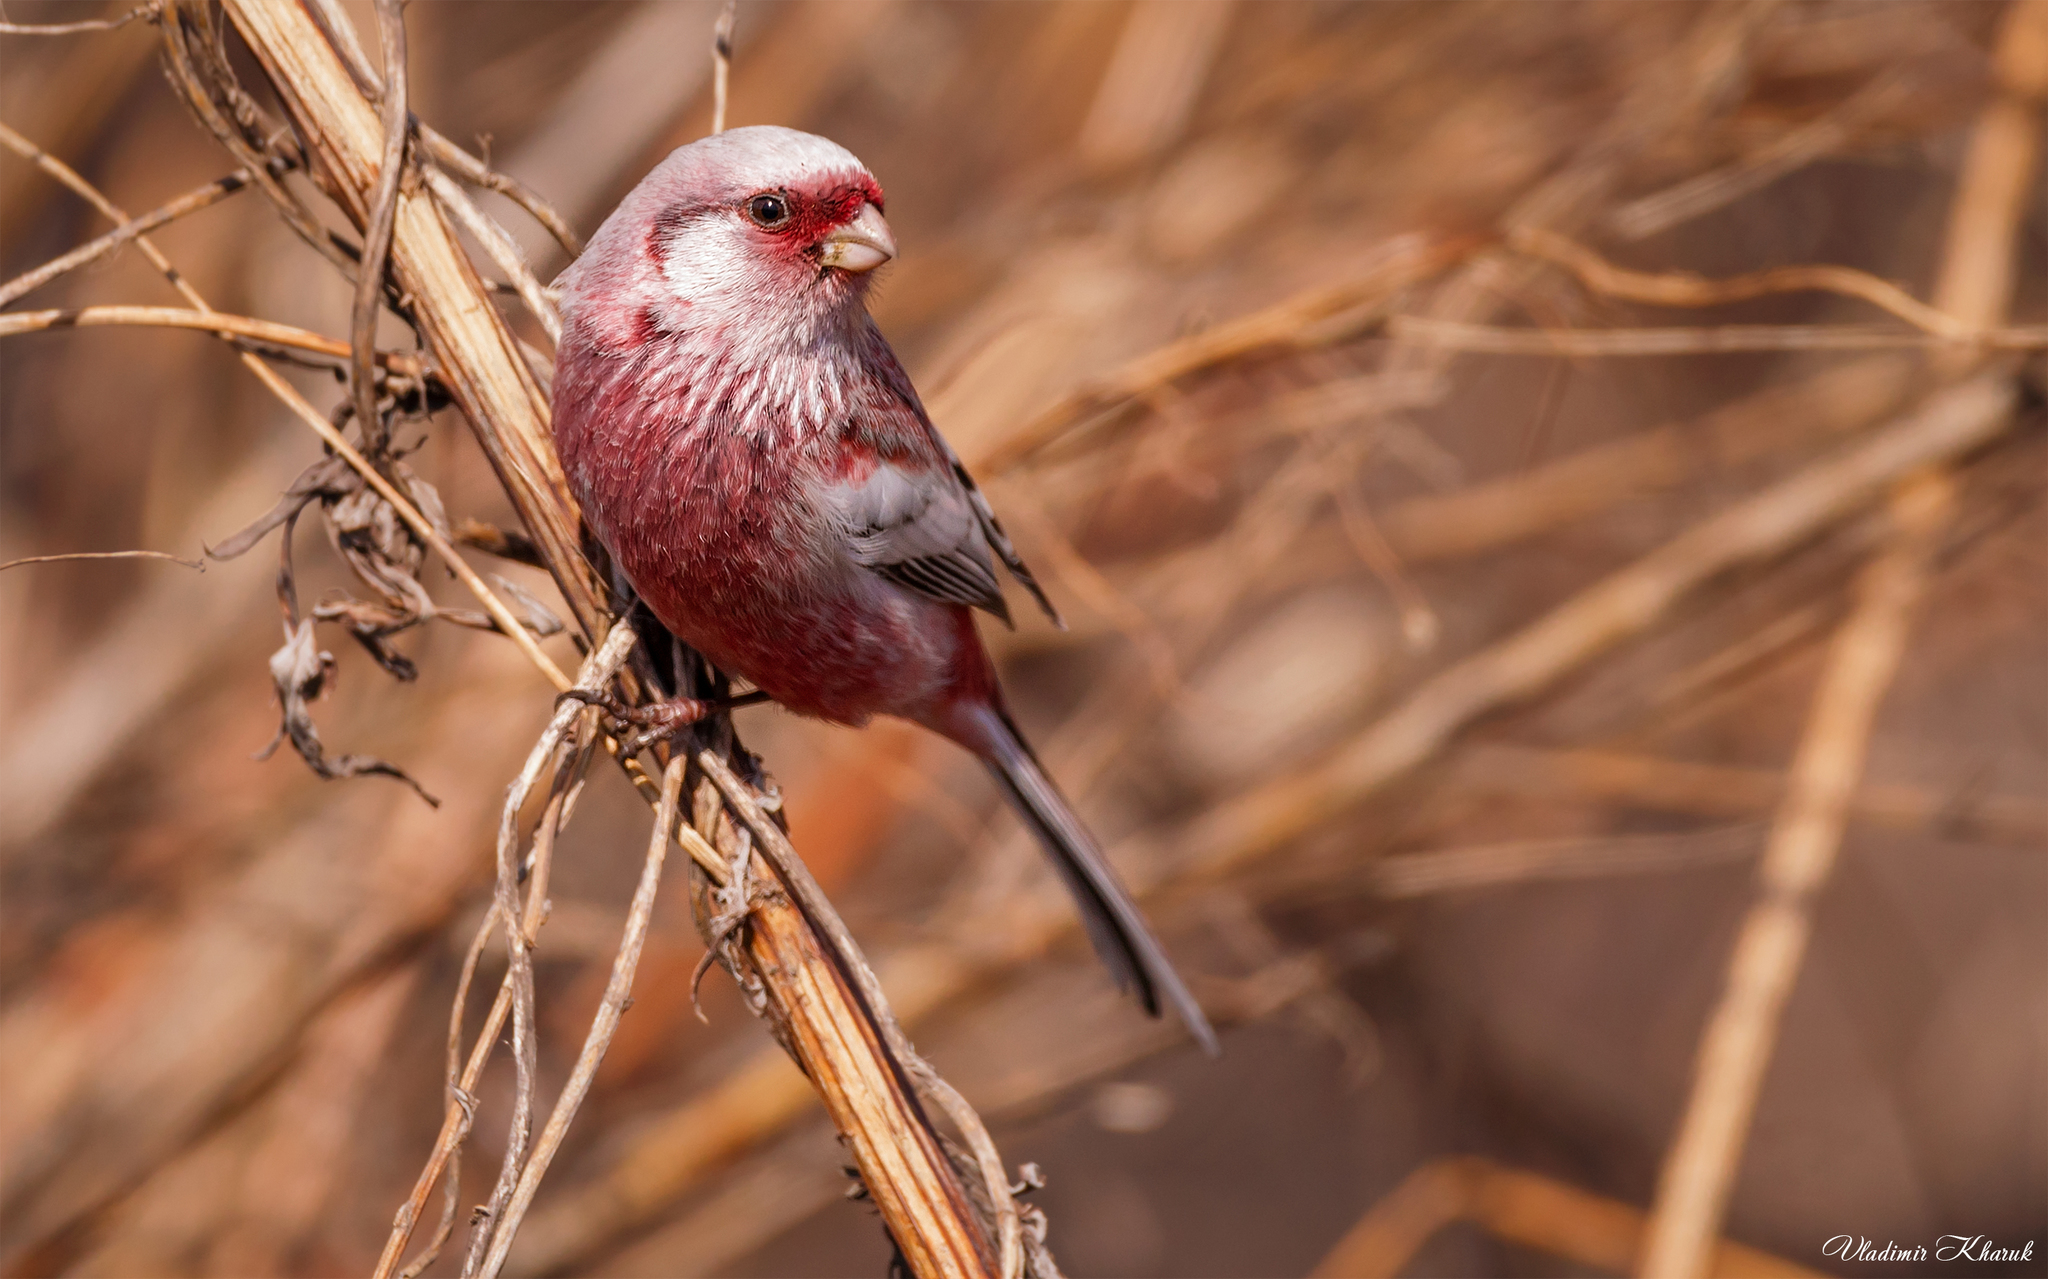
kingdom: Animalia
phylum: Chordata
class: Aves
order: Passeriformes
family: Fringillidae
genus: Carpodacus
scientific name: Carpodacus sibiricus
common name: Long-tailed rosefinch
